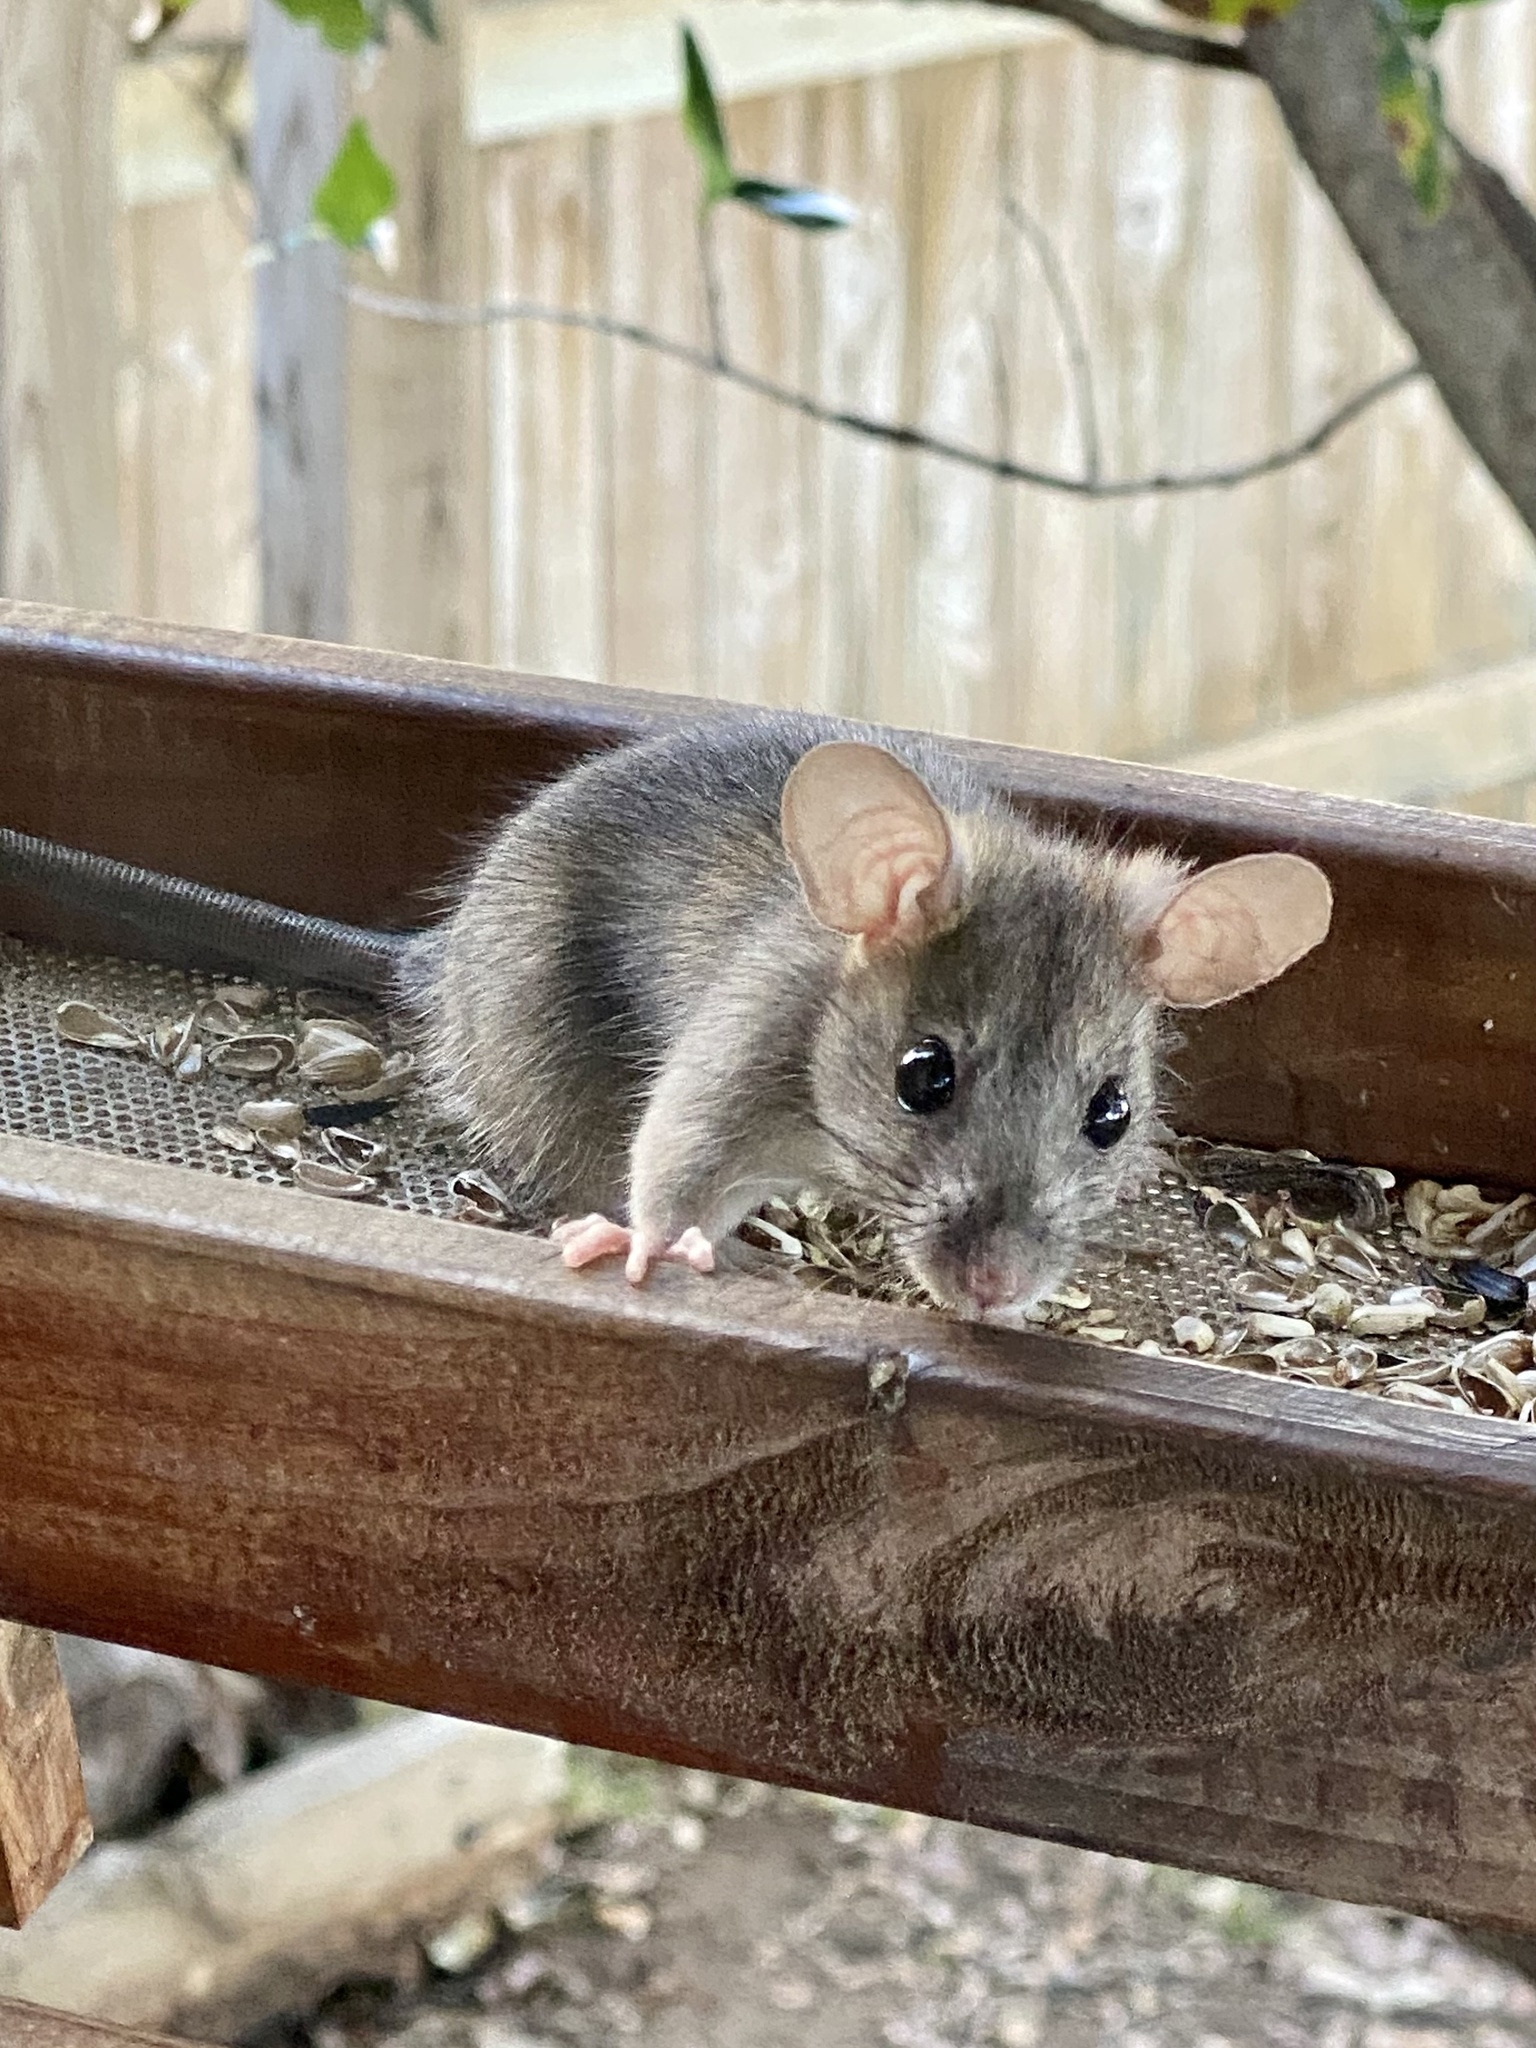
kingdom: Animalia
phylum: Chordata
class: Mammalia
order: Rodentia
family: Muridae
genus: Mus
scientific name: Mus musculus
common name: House mouse
